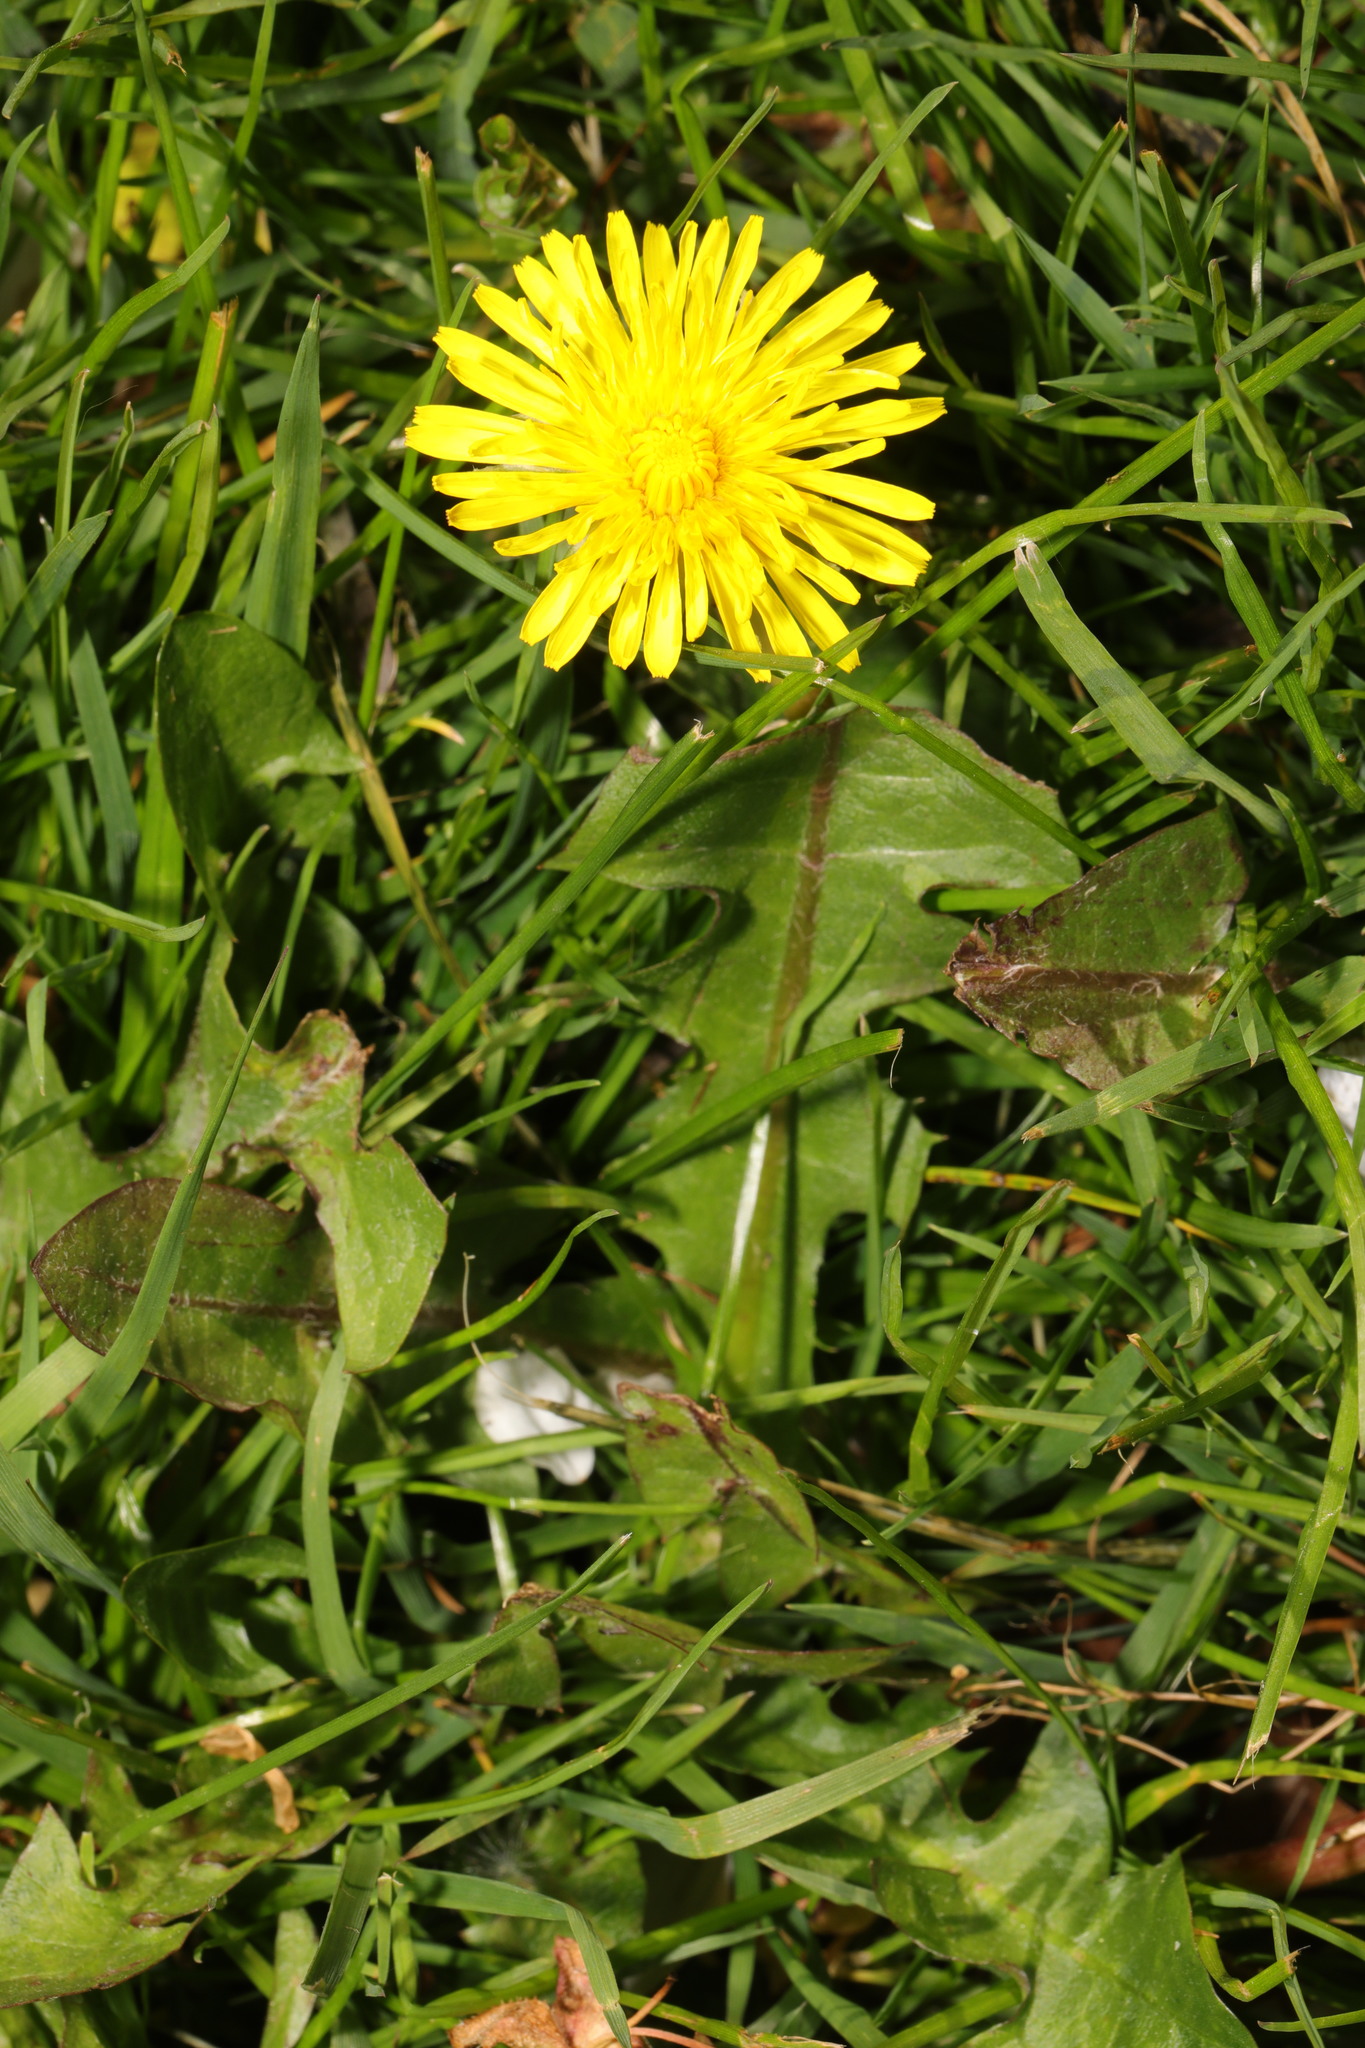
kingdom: Plantae
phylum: Tracheophyta
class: Magnoliopsida
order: Asterales
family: Asteraceae
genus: Taraxacum
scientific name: Taraxacum officinale
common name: Common dandelion
